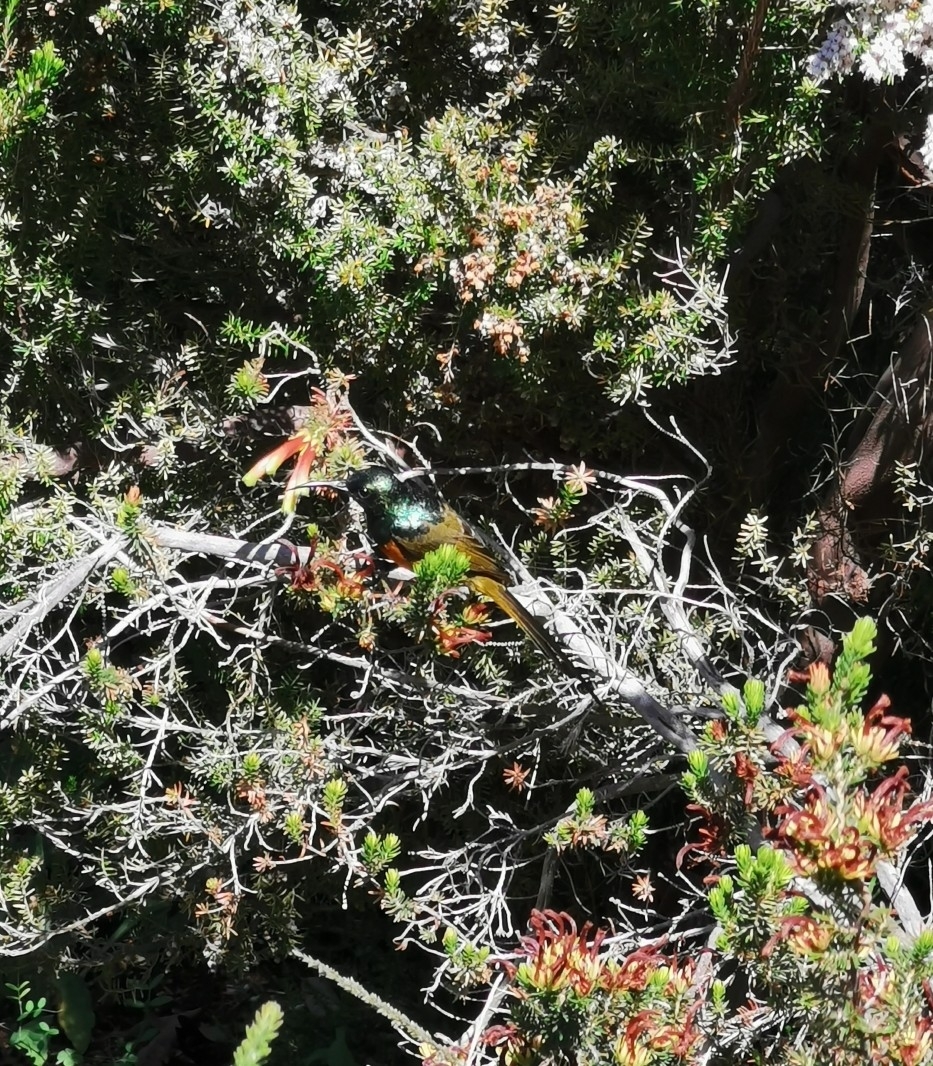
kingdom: Animalia
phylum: Chordata
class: Aves
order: Passeriformes
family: Nectariniidae
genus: Anthobaphes
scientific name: Anthobaphes violacea
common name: Orange-breasted sunbird
